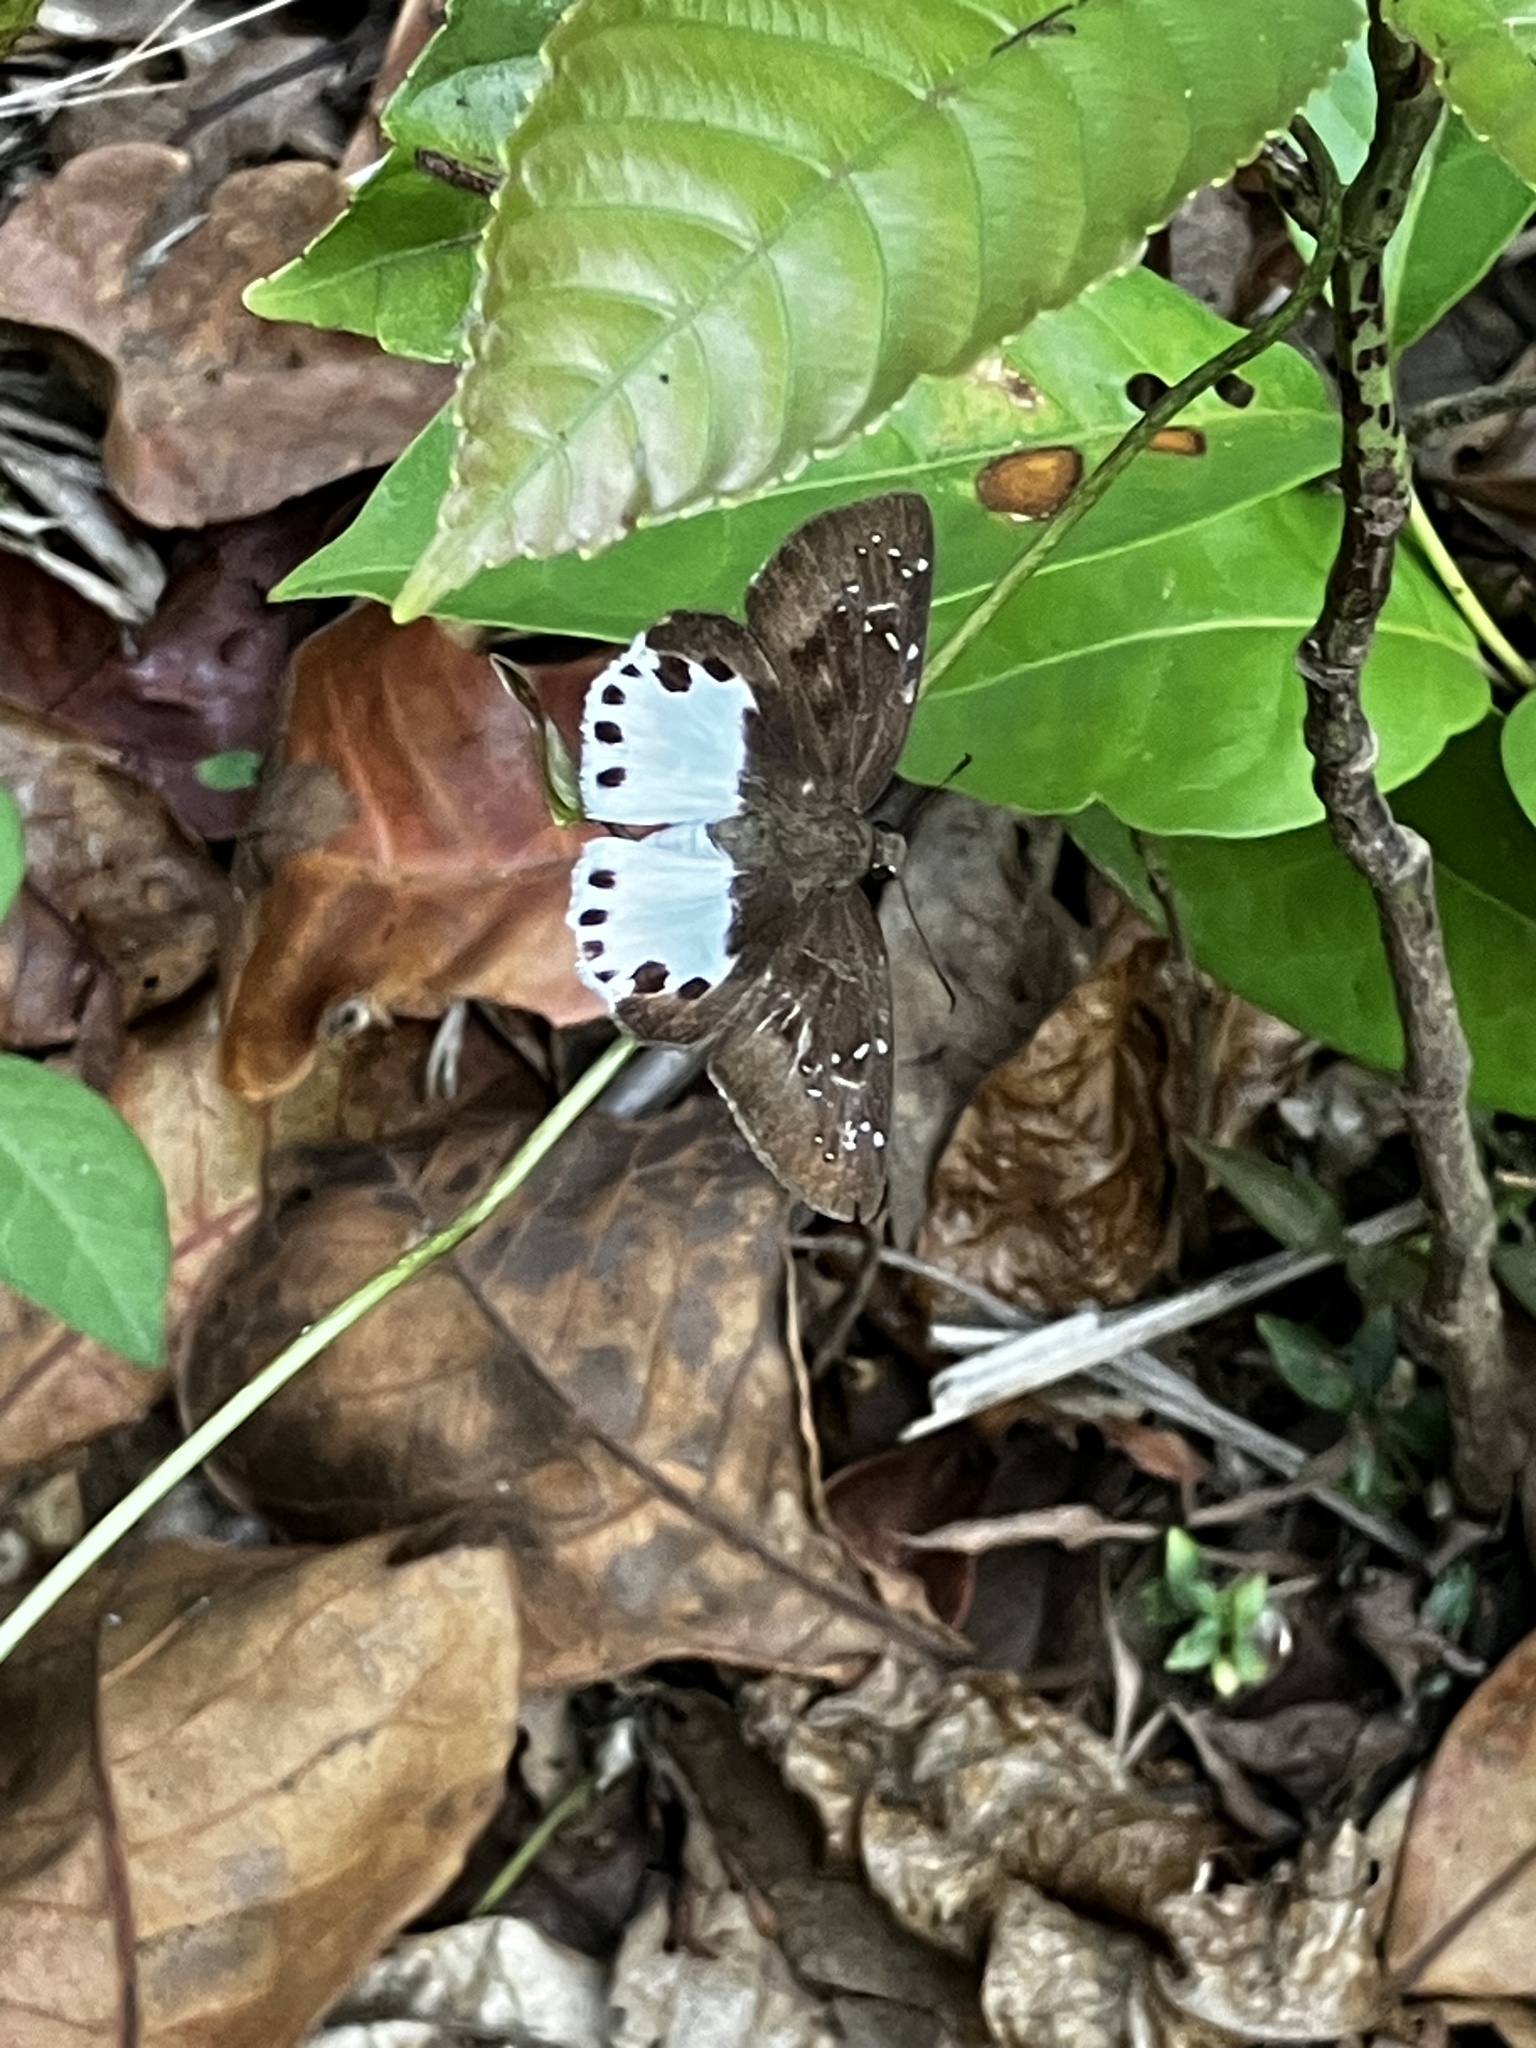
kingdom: Animalia
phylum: Arthropoda
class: Insecta
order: Lepidoptera
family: Hesperiidae
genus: Tagiades
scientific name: Tagiades litigiosa
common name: Water snow flat
